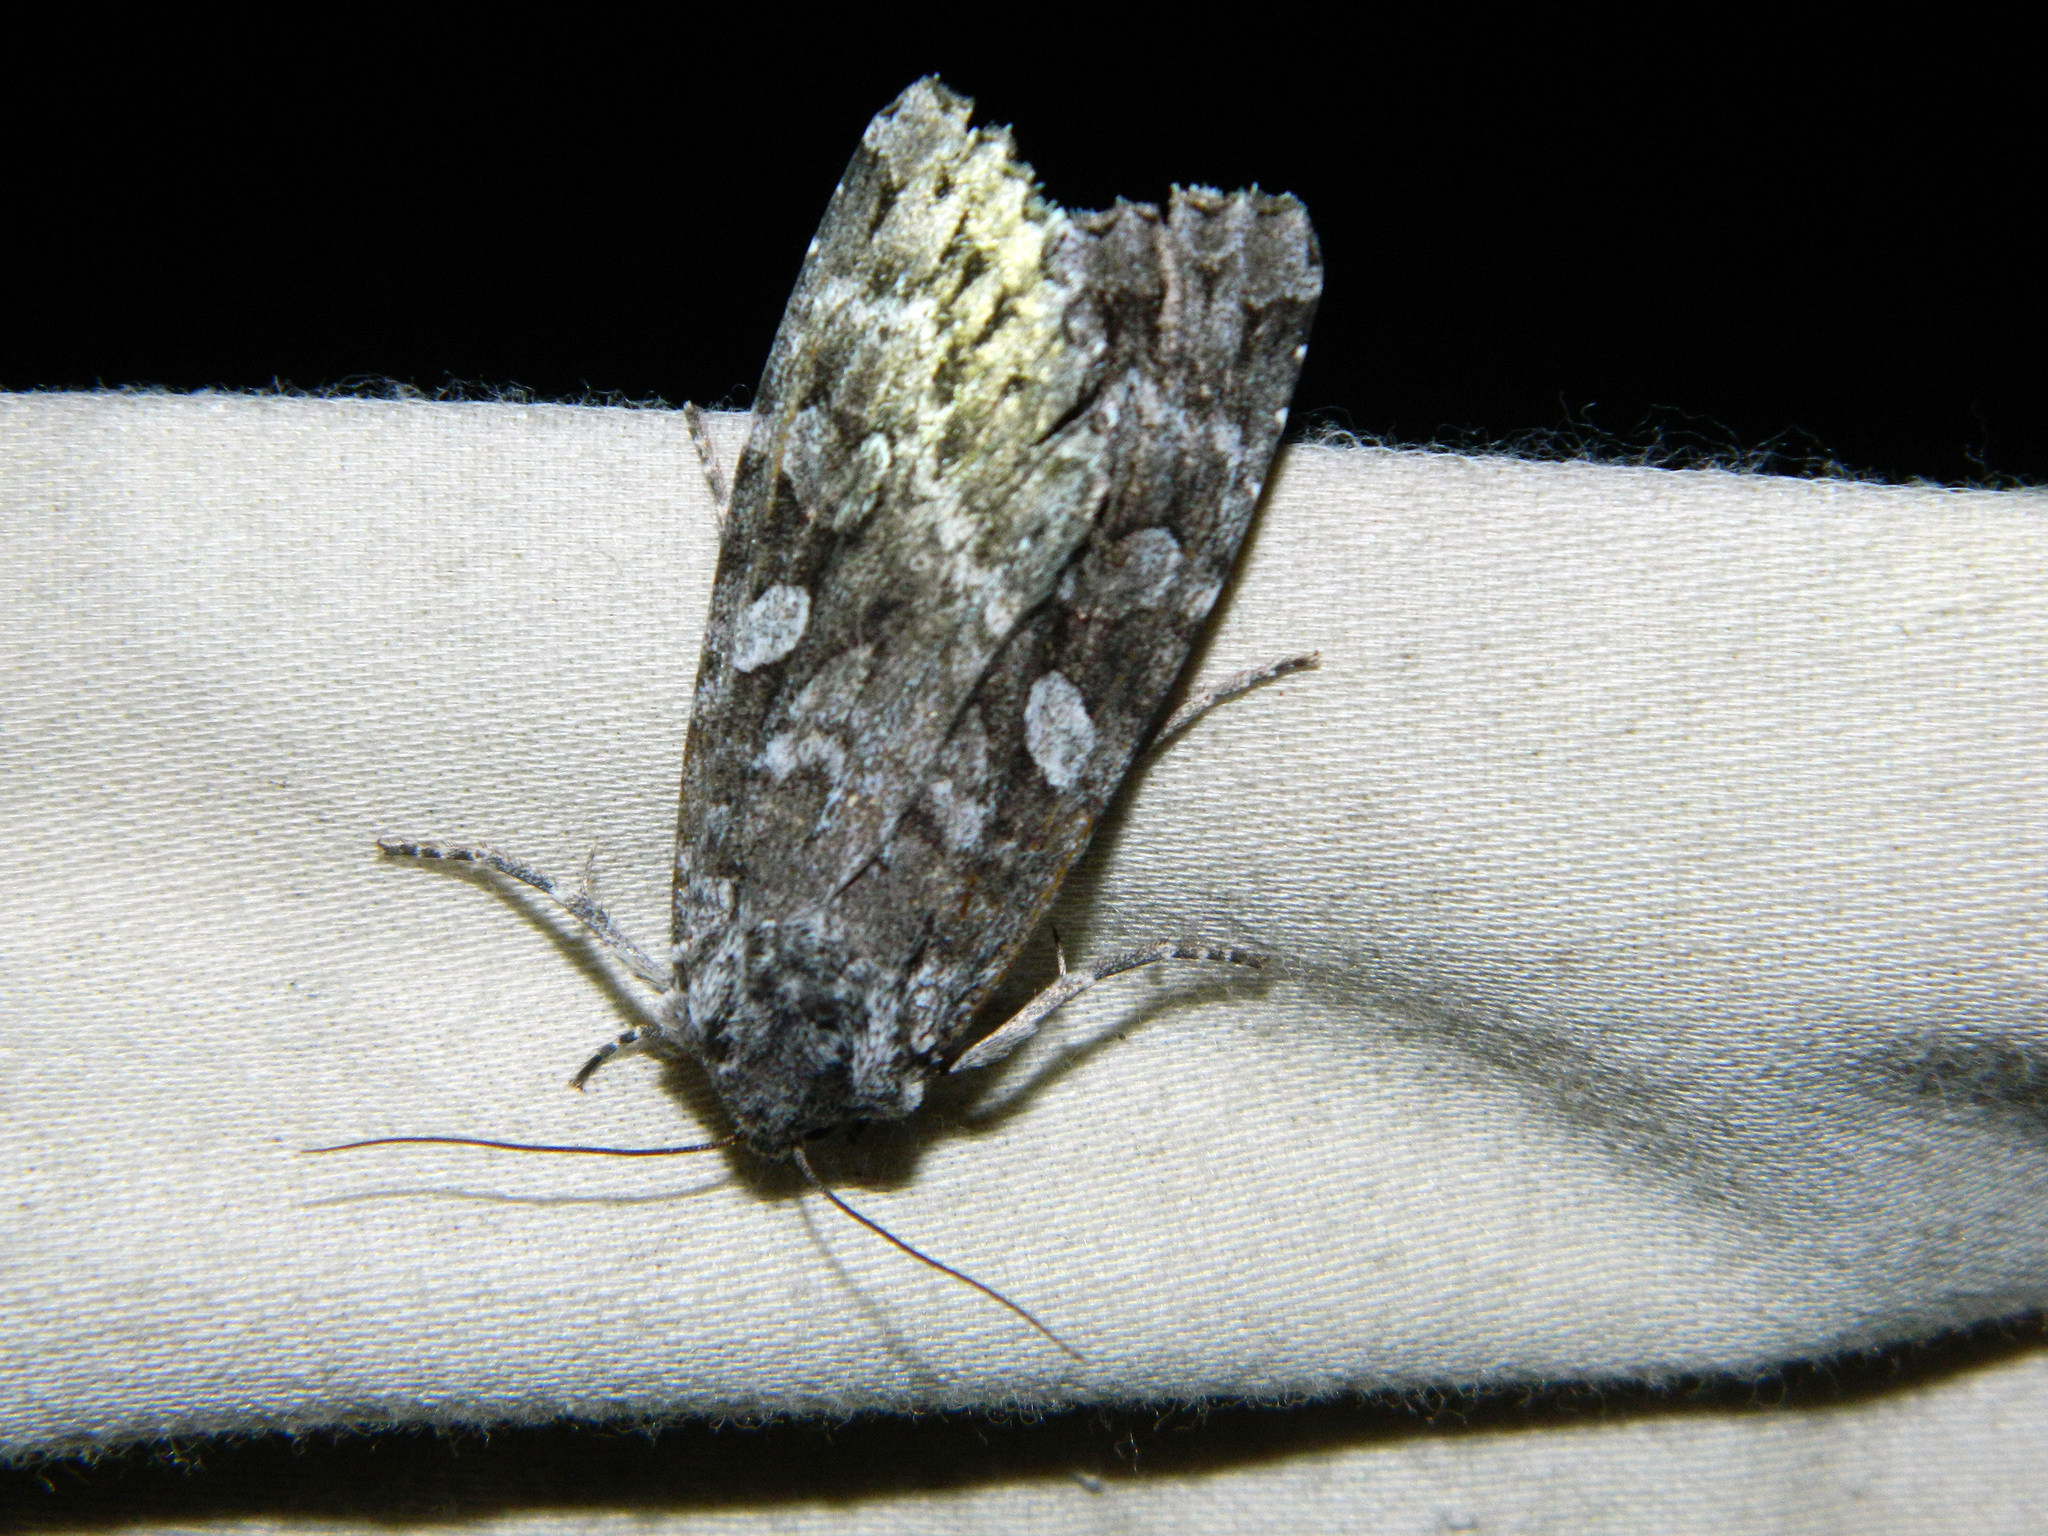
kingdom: Animalia
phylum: Arthropoda
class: Insecta
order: Lepidoptera
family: Noctuidae
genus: Eurois
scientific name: Eurois occulta
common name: Great brocade
